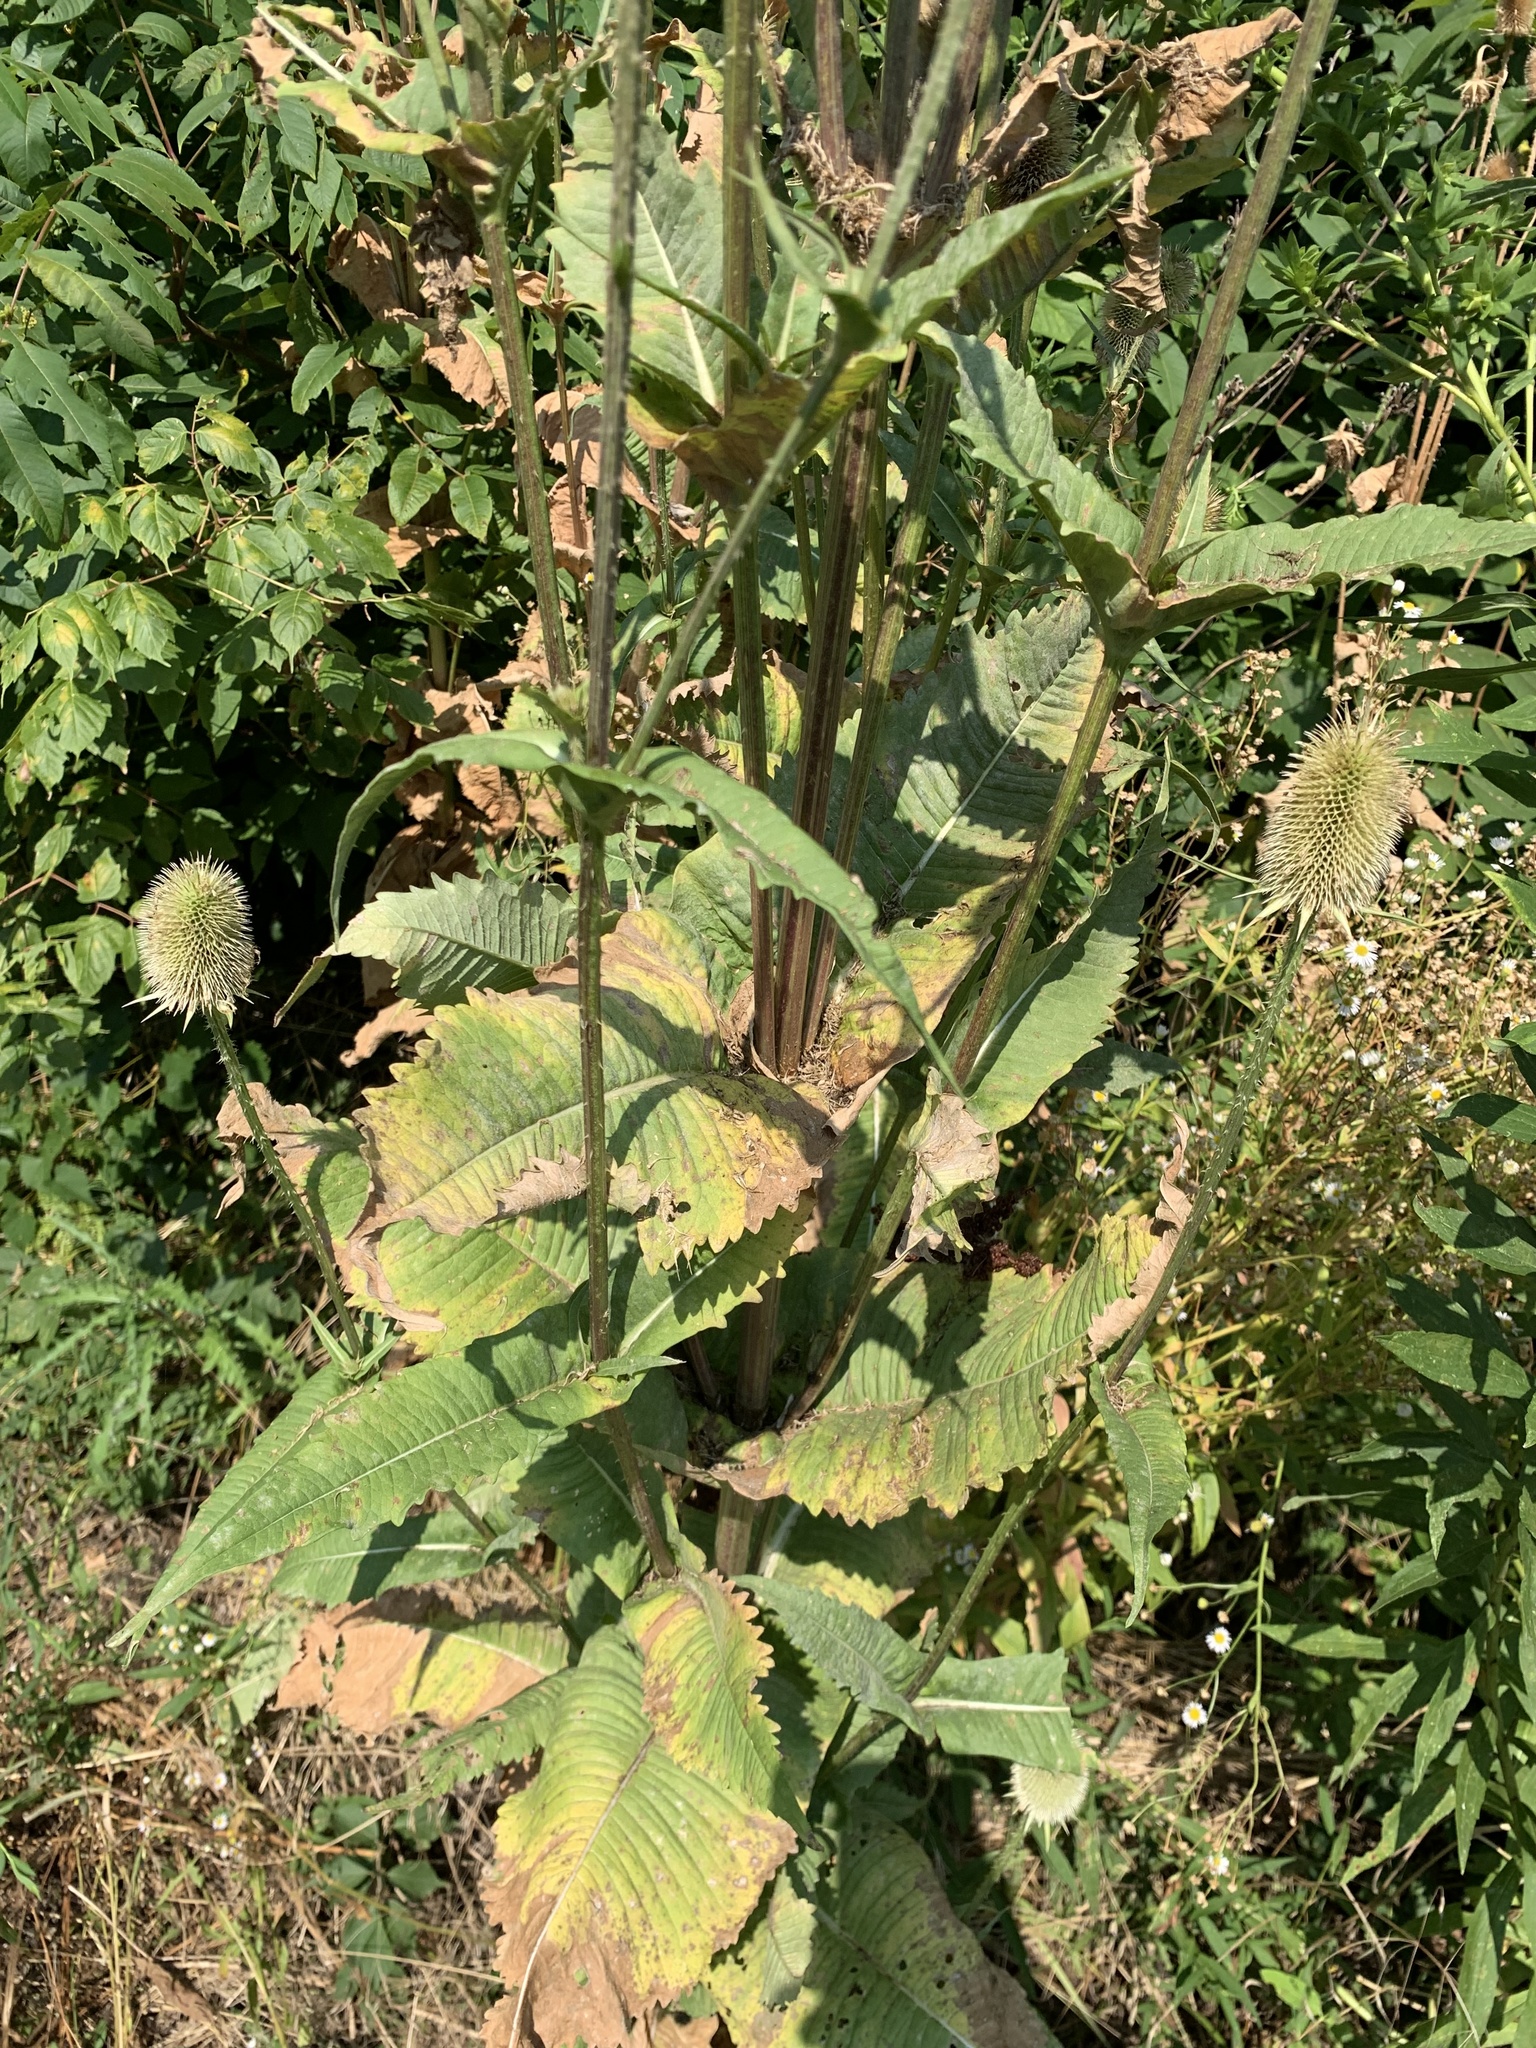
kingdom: Plantae
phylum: Tracheophyta
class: Magnoliopsida
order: Dipsacales
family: Caprifoliaceae
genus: Dipsacus
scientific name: Dipsacus laciniatus
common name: Cut-leaved teasel
